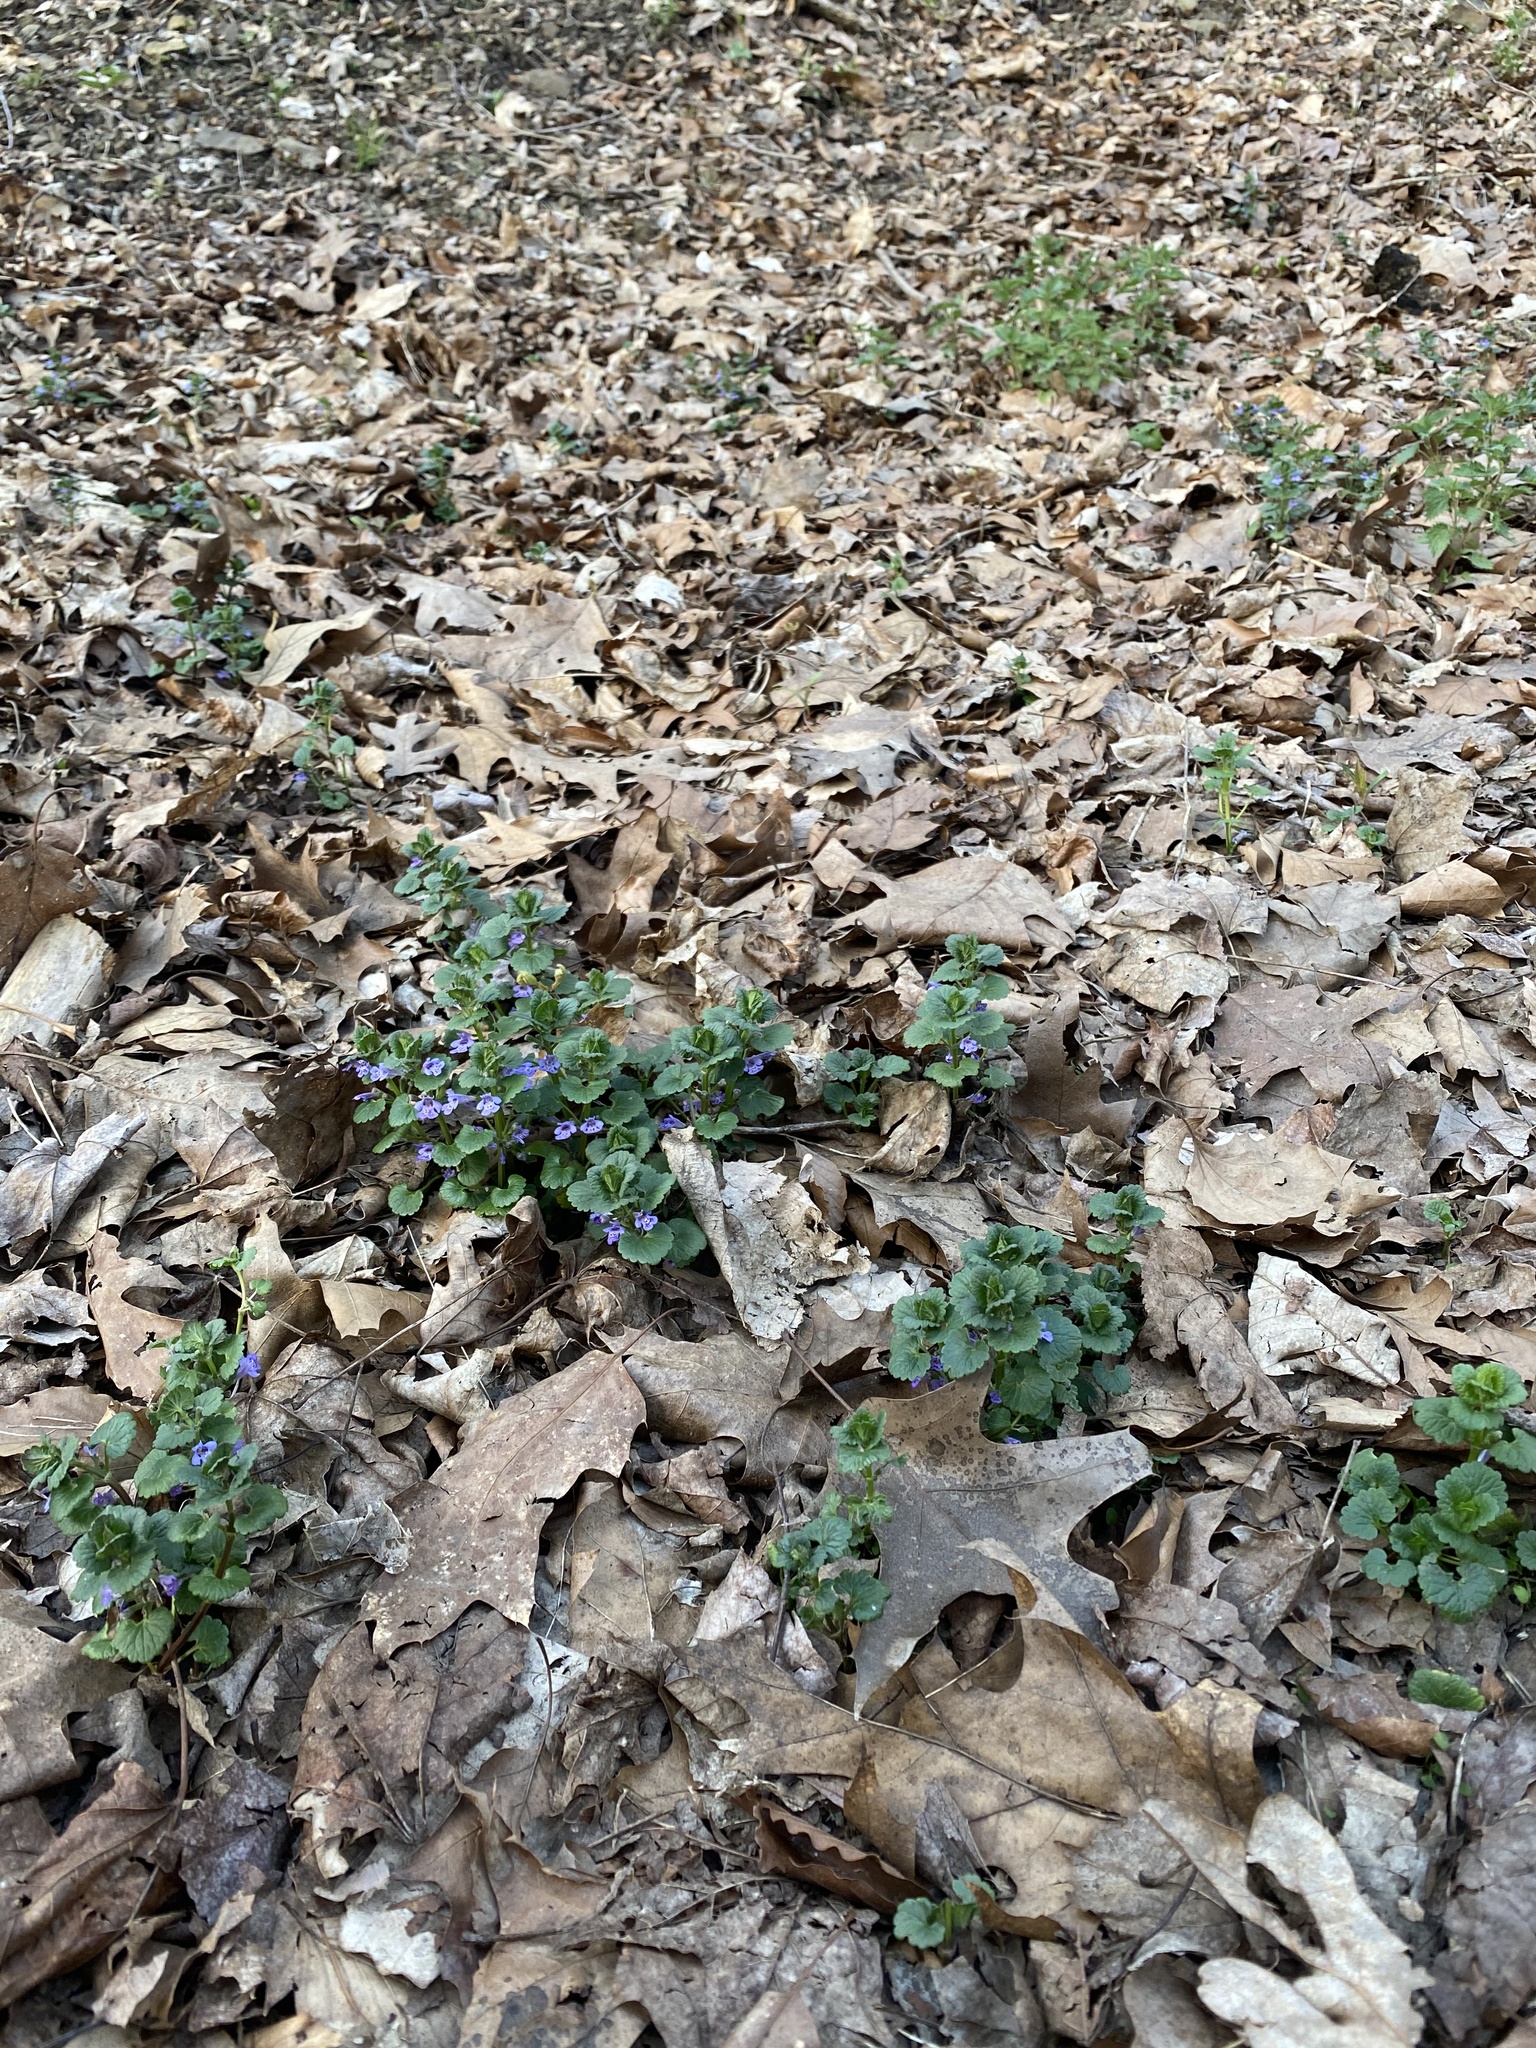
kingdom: Plantae
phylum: Tracheophyta
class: Magnoliopsida
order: Lamiales
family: Lamiaceae
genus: Glechoma
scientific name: Glechoma hederacea
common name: Ground ivy
